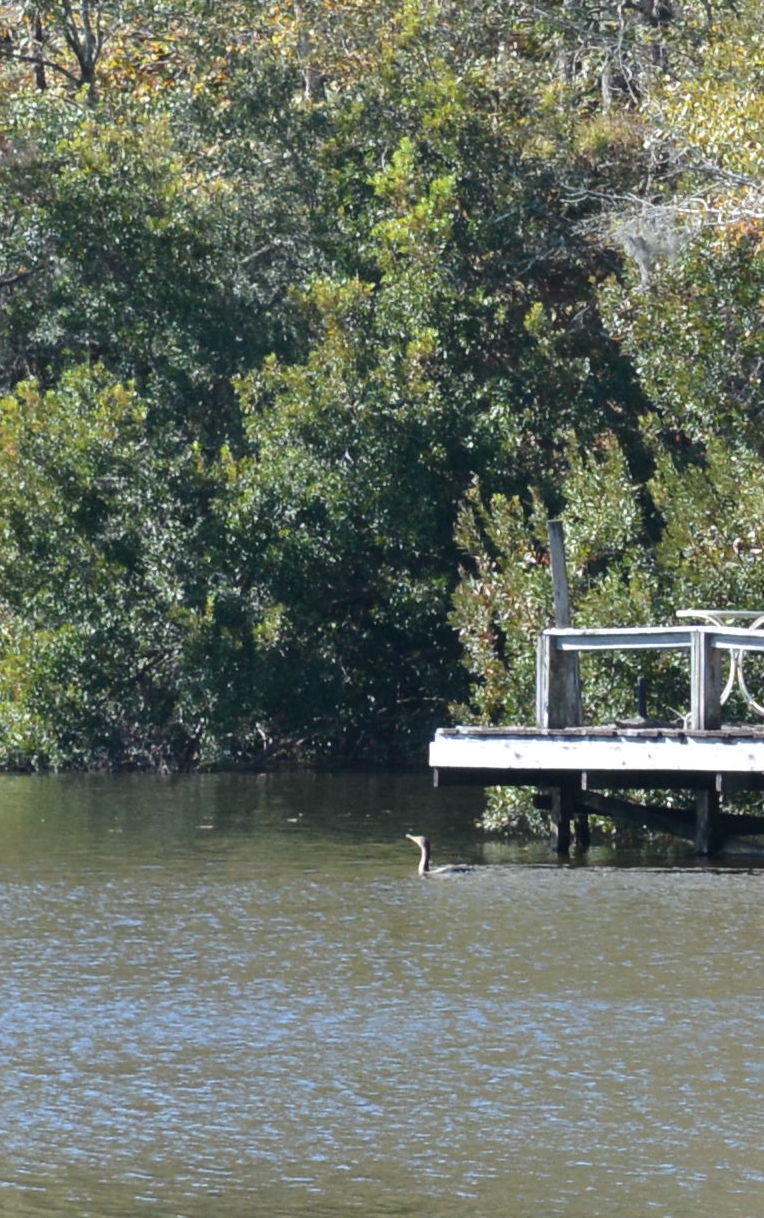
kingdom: Animalia
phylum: Chordata
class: Aves
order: Suliformes
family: Phalacrocoracidae
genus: Phalacrocorax
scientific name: Phalacrocorax brasilianus
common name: Neotropic cormorant
